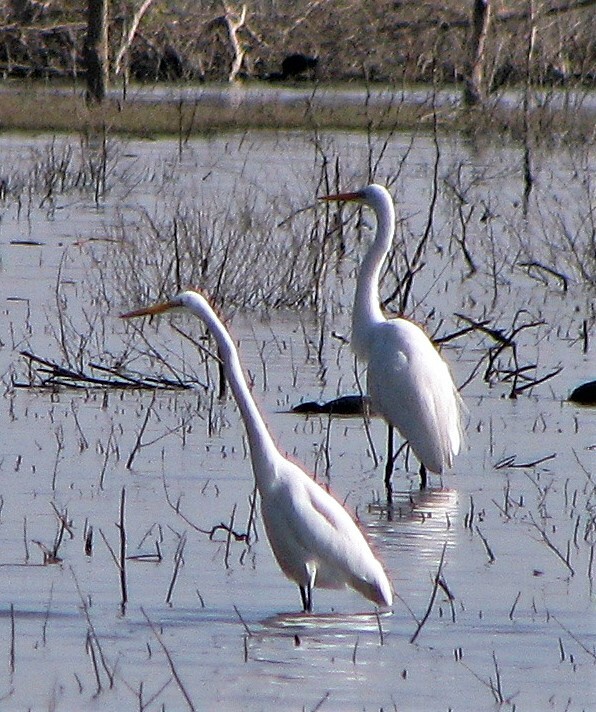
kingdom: Animalia
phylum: Chordata
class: Aves
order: Pelecaniformes
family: Ardeidae
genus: Ardea
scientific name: Ardea alba
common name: Great egret
